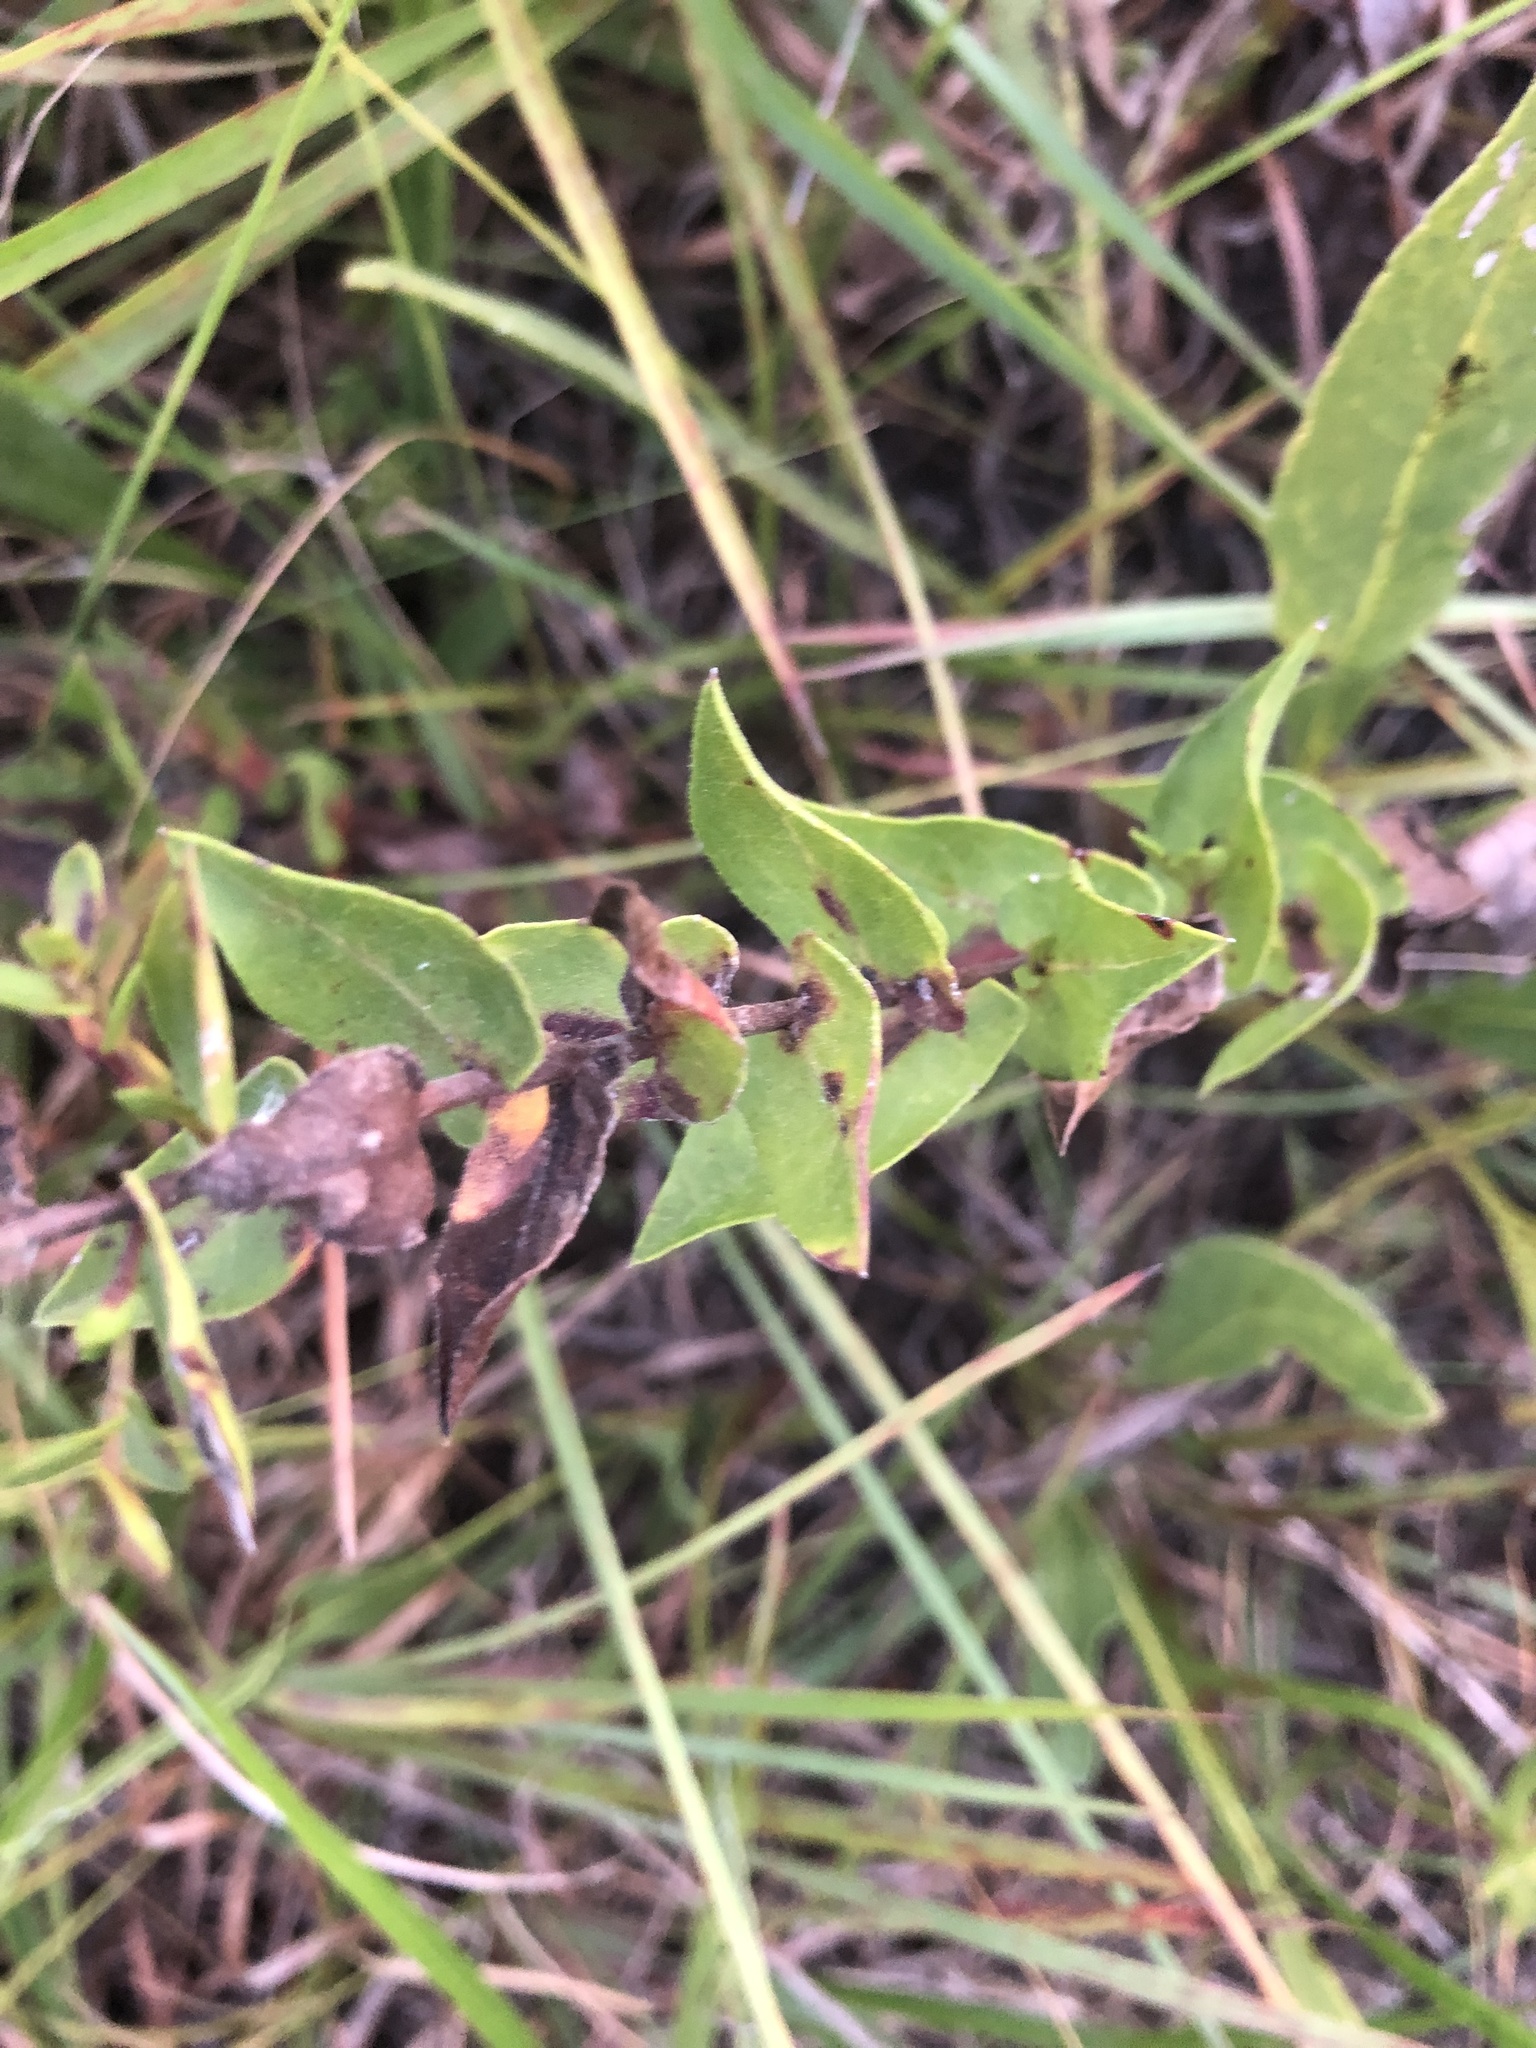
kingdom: Plantae
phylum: Tracheophyta
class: Magnoliopsida
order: Asterales
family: Asteraceae
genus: Symphyotrichum
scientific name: Symphyotrichum patens
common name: Late purple aster
